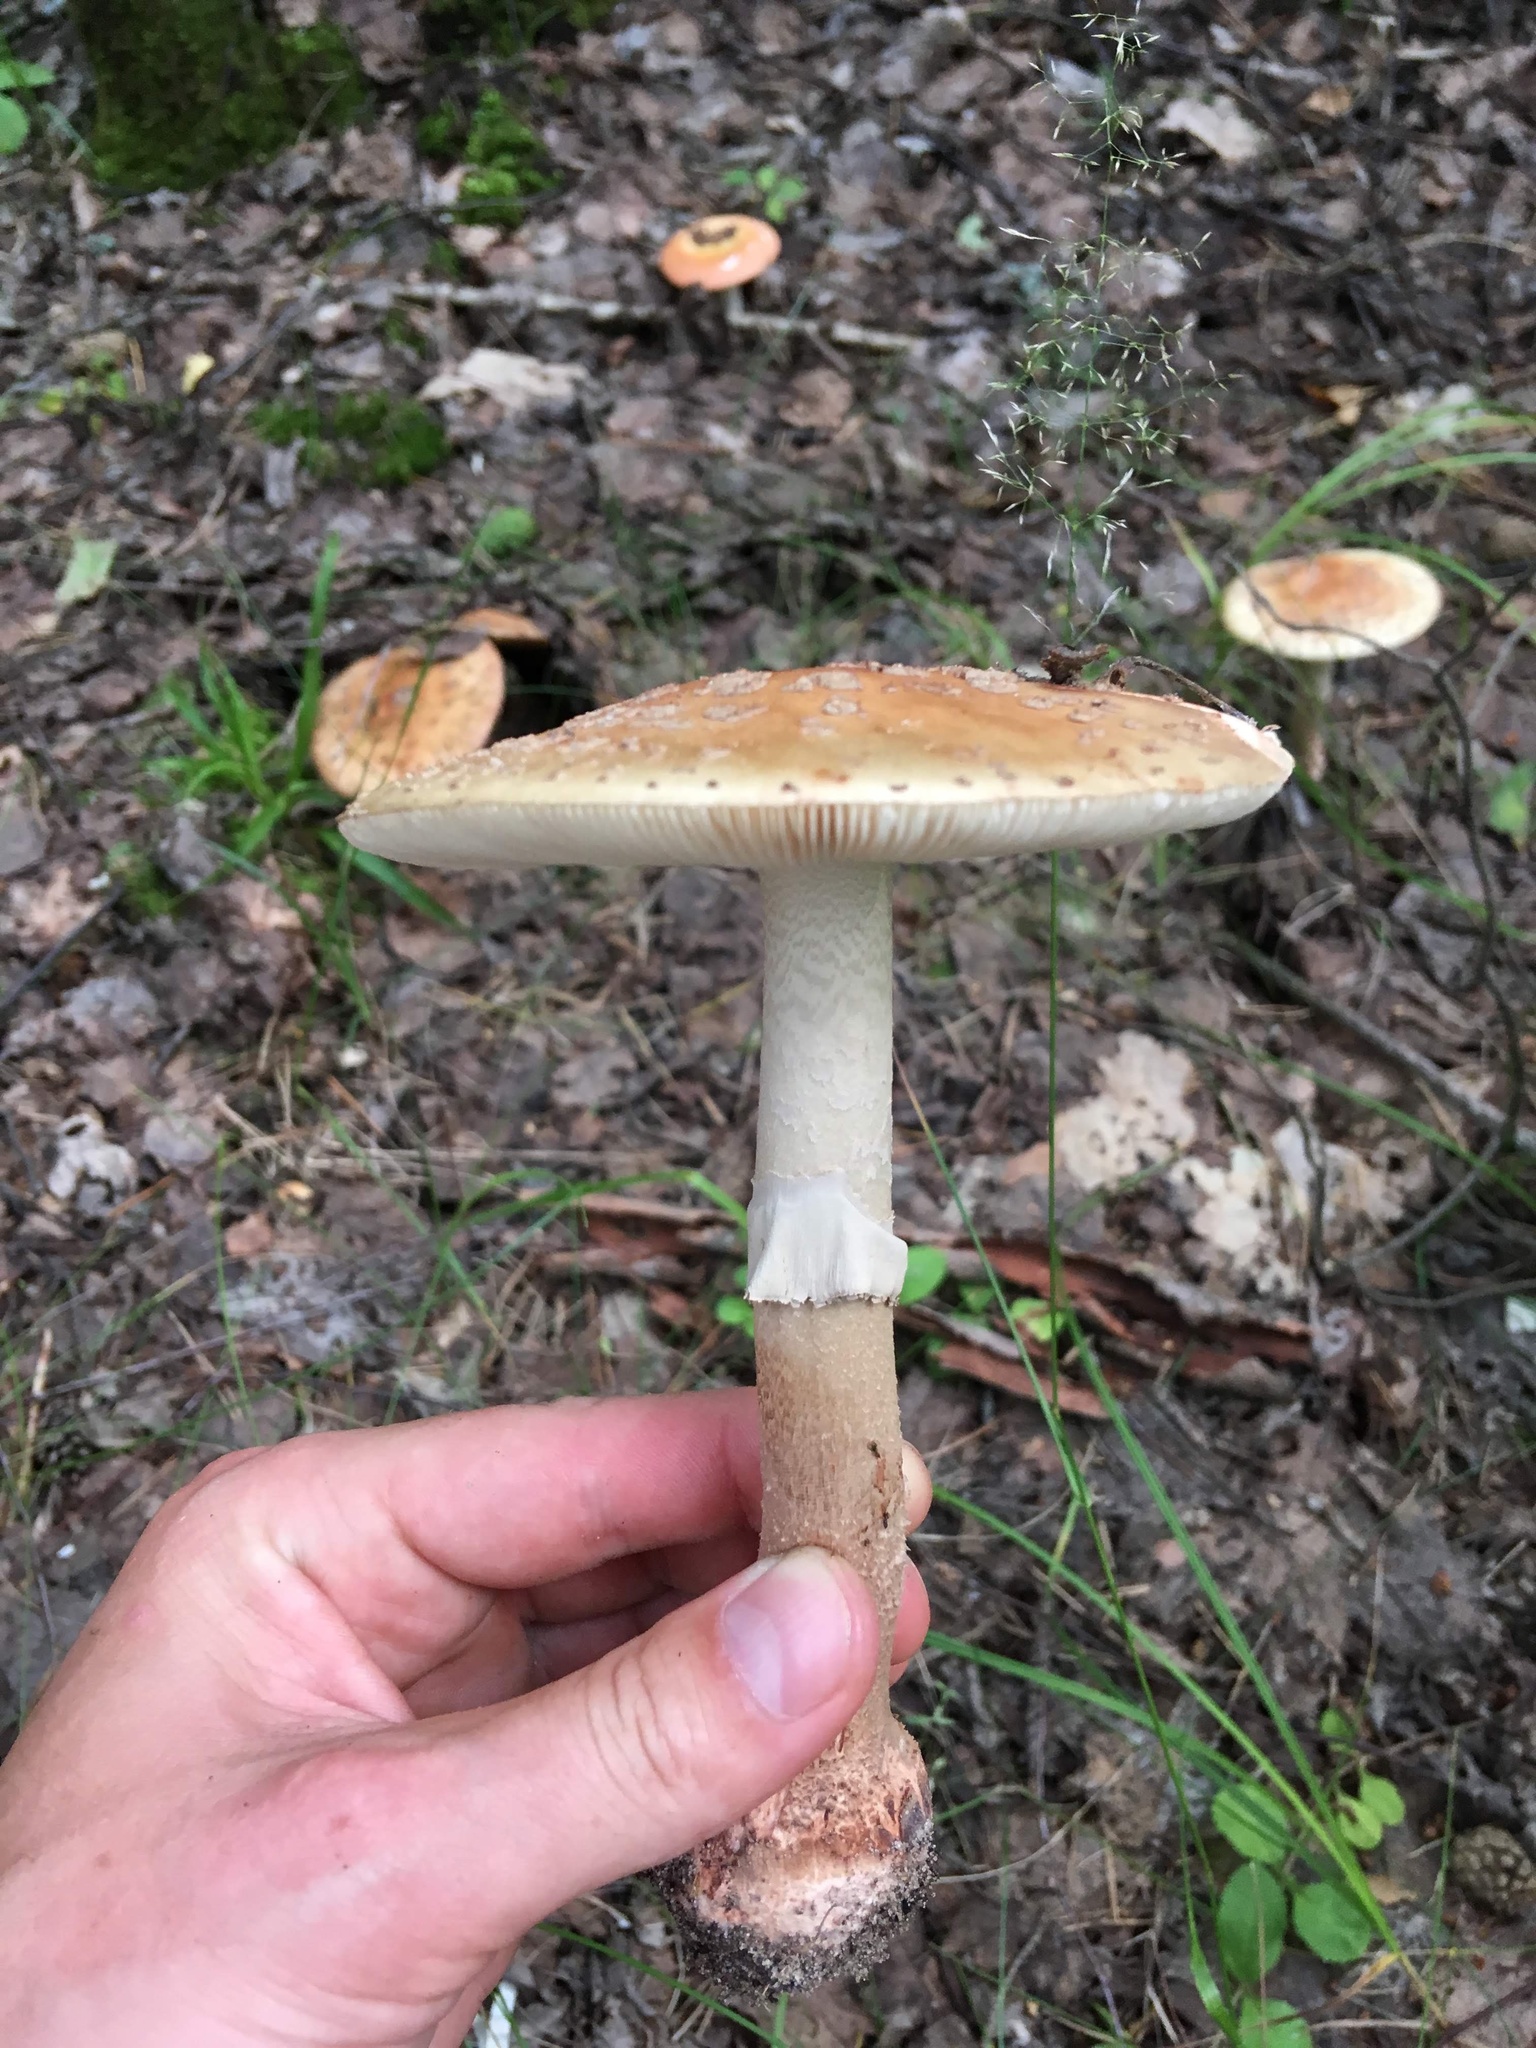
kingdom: Fungi
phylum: Basidiomycota
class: Agaricomycetes
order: Agaricales
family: Amanitaceae
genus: Amanita
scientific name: Amanita rubescens
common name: Blusher
